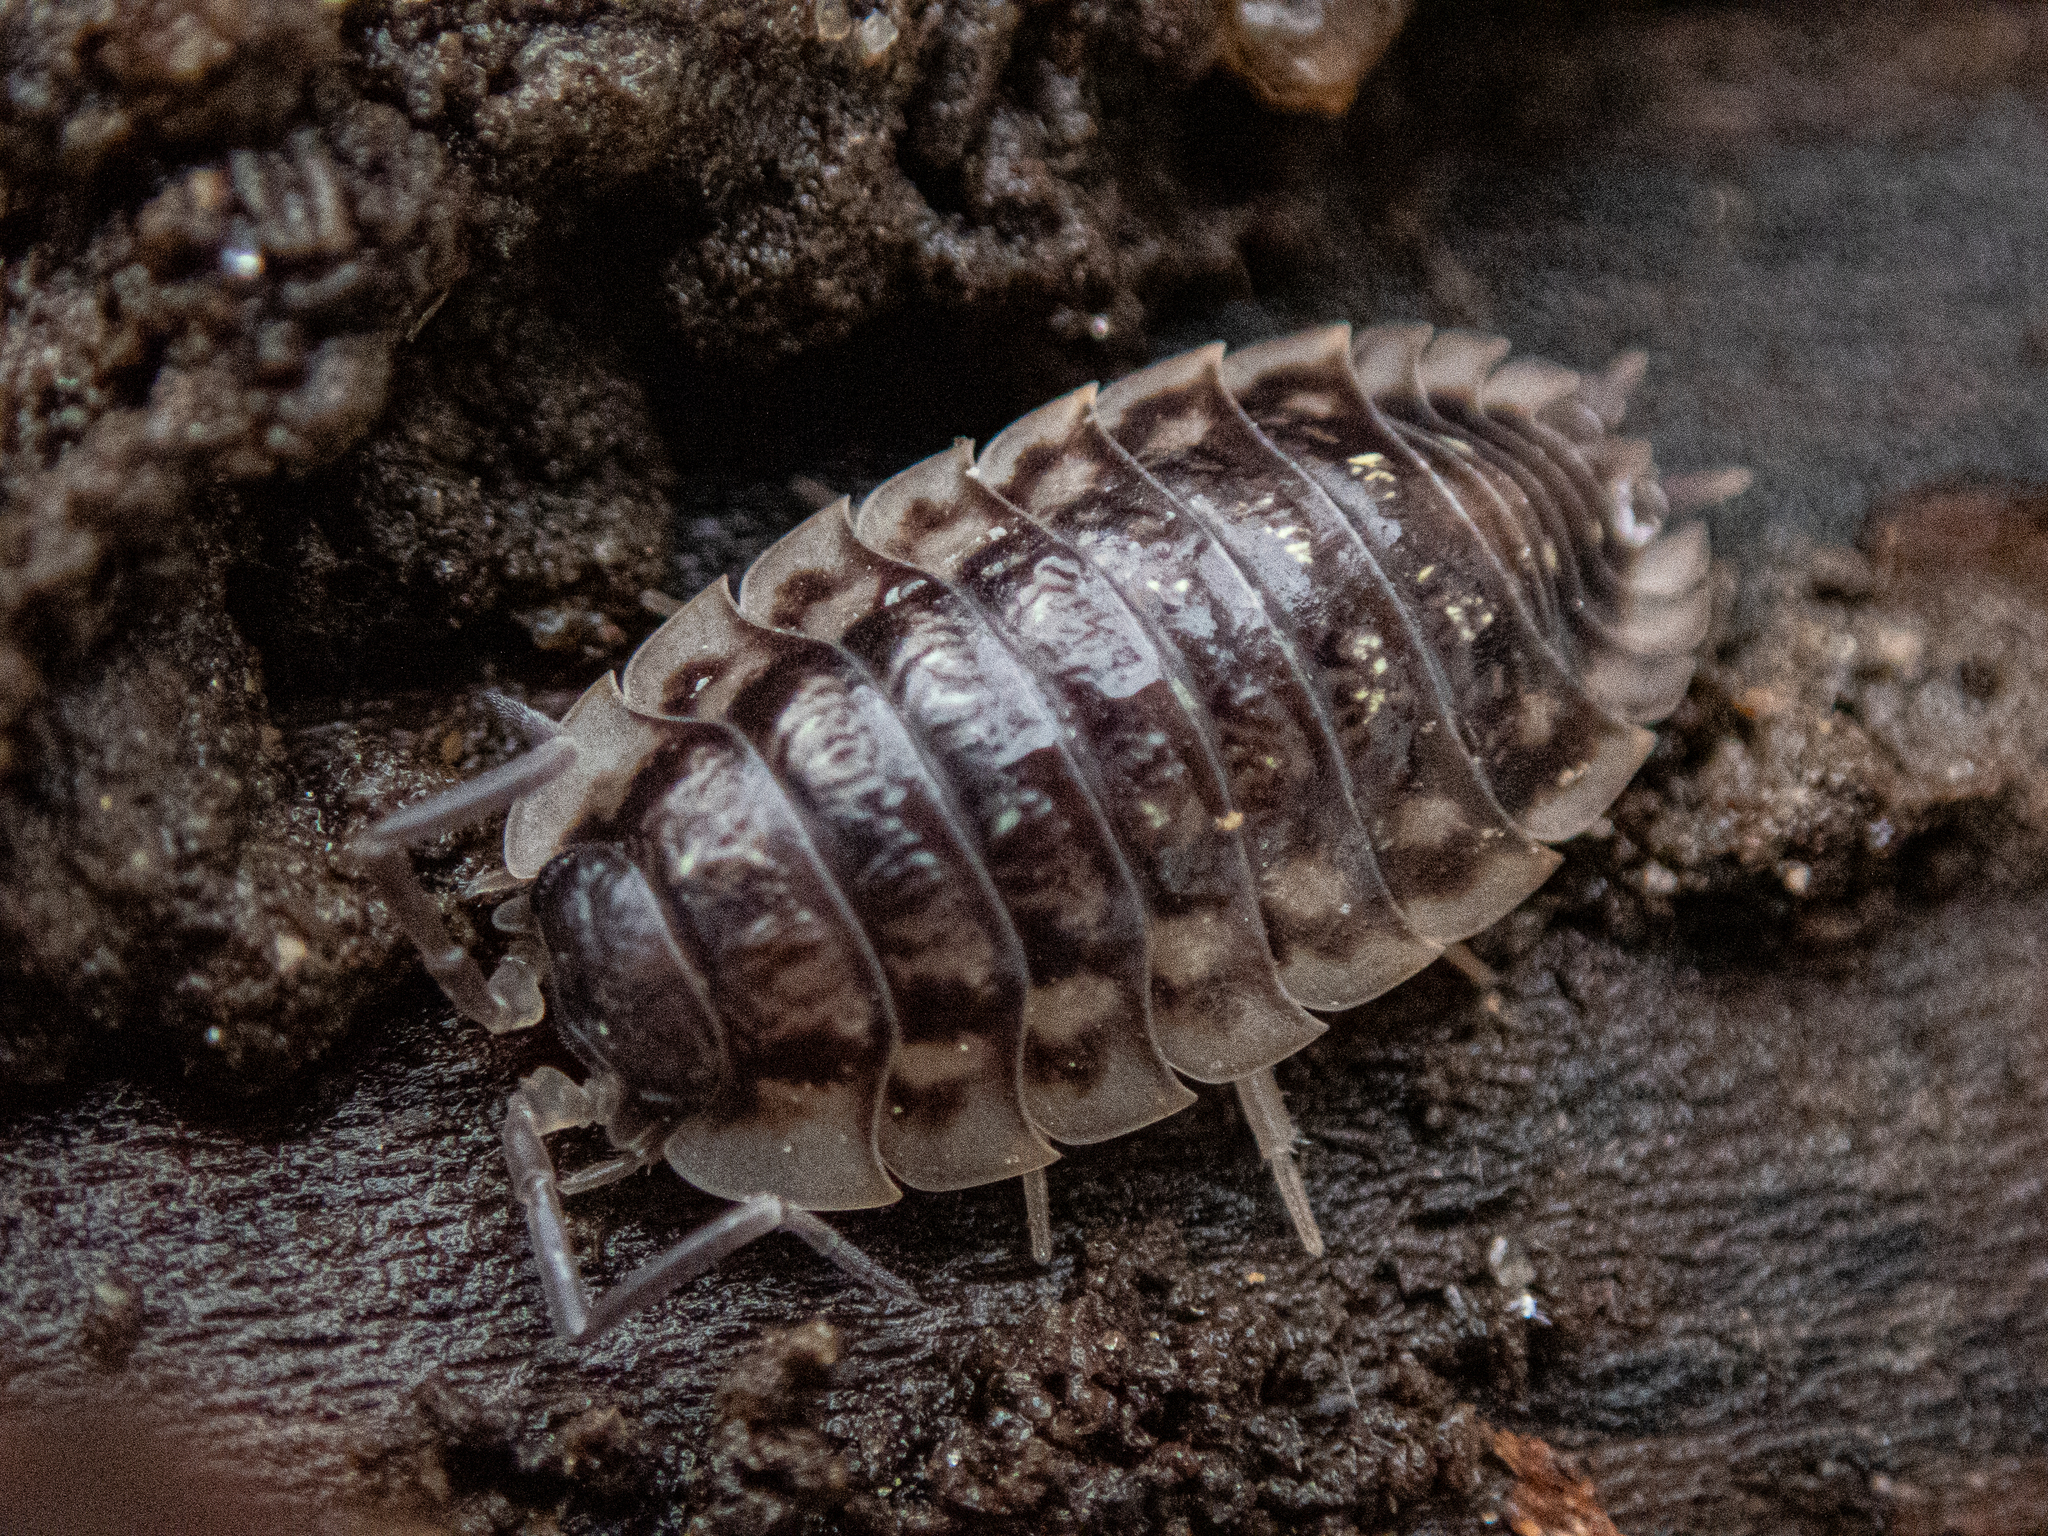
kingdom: Animalia
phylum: Arthropoda
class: Malacostraca
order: Isopoda
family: Oniscidae
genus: Oniscus
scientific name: Oniscus asellus
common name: Common shiny woodlouse
